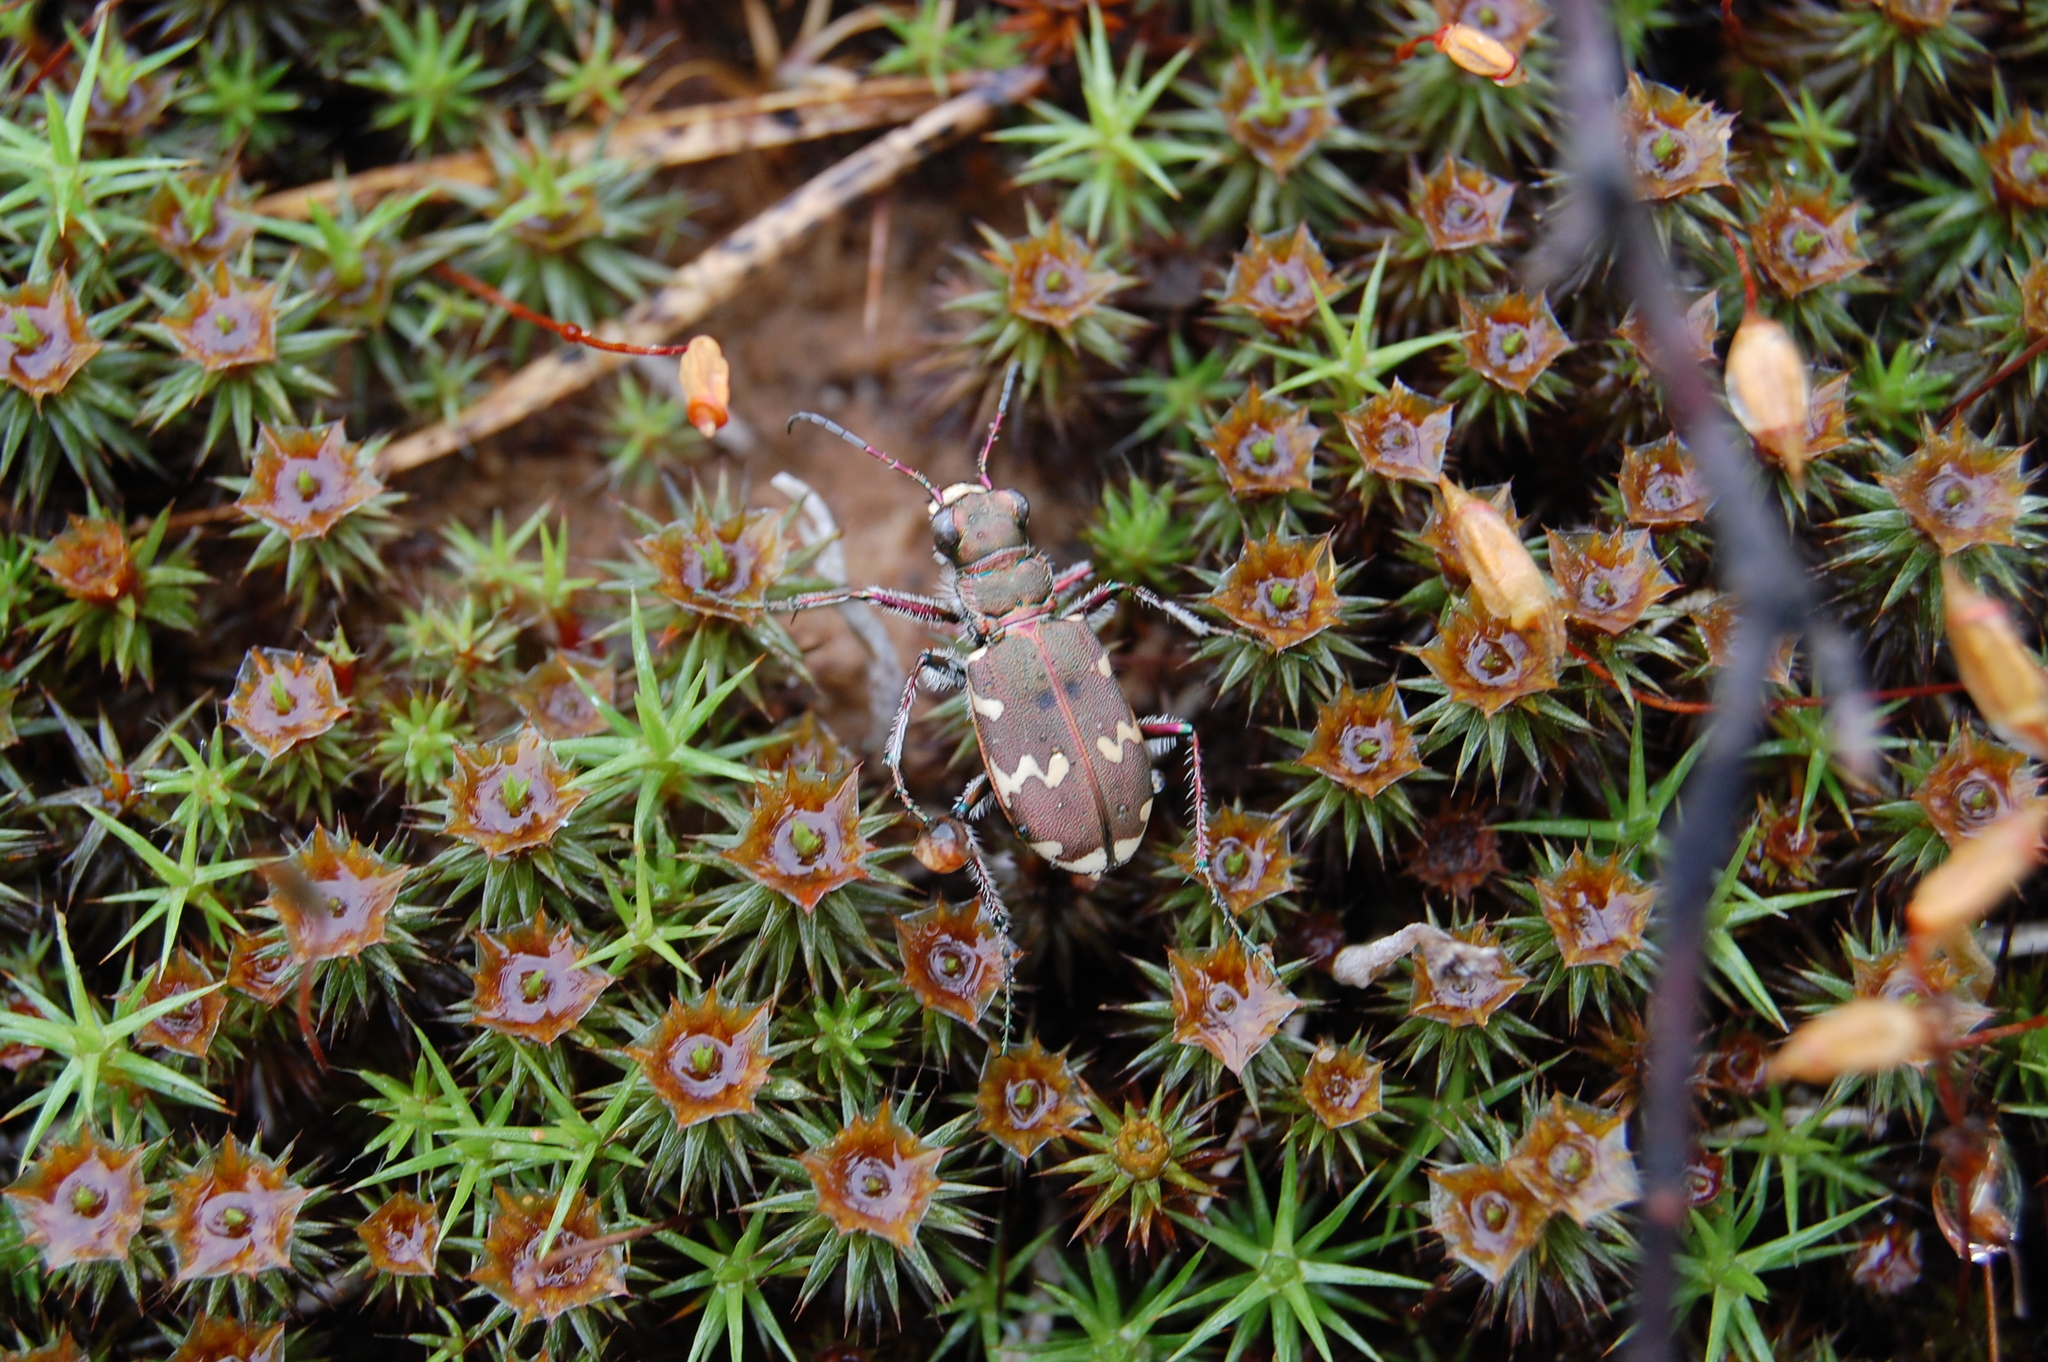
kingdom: Animalia
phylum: Arthropoda
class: Insecta
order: Coleoptera
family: Carabidae
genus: Cicindela
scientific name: Cicindela hybrida
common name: Northern dune tiger beetle
